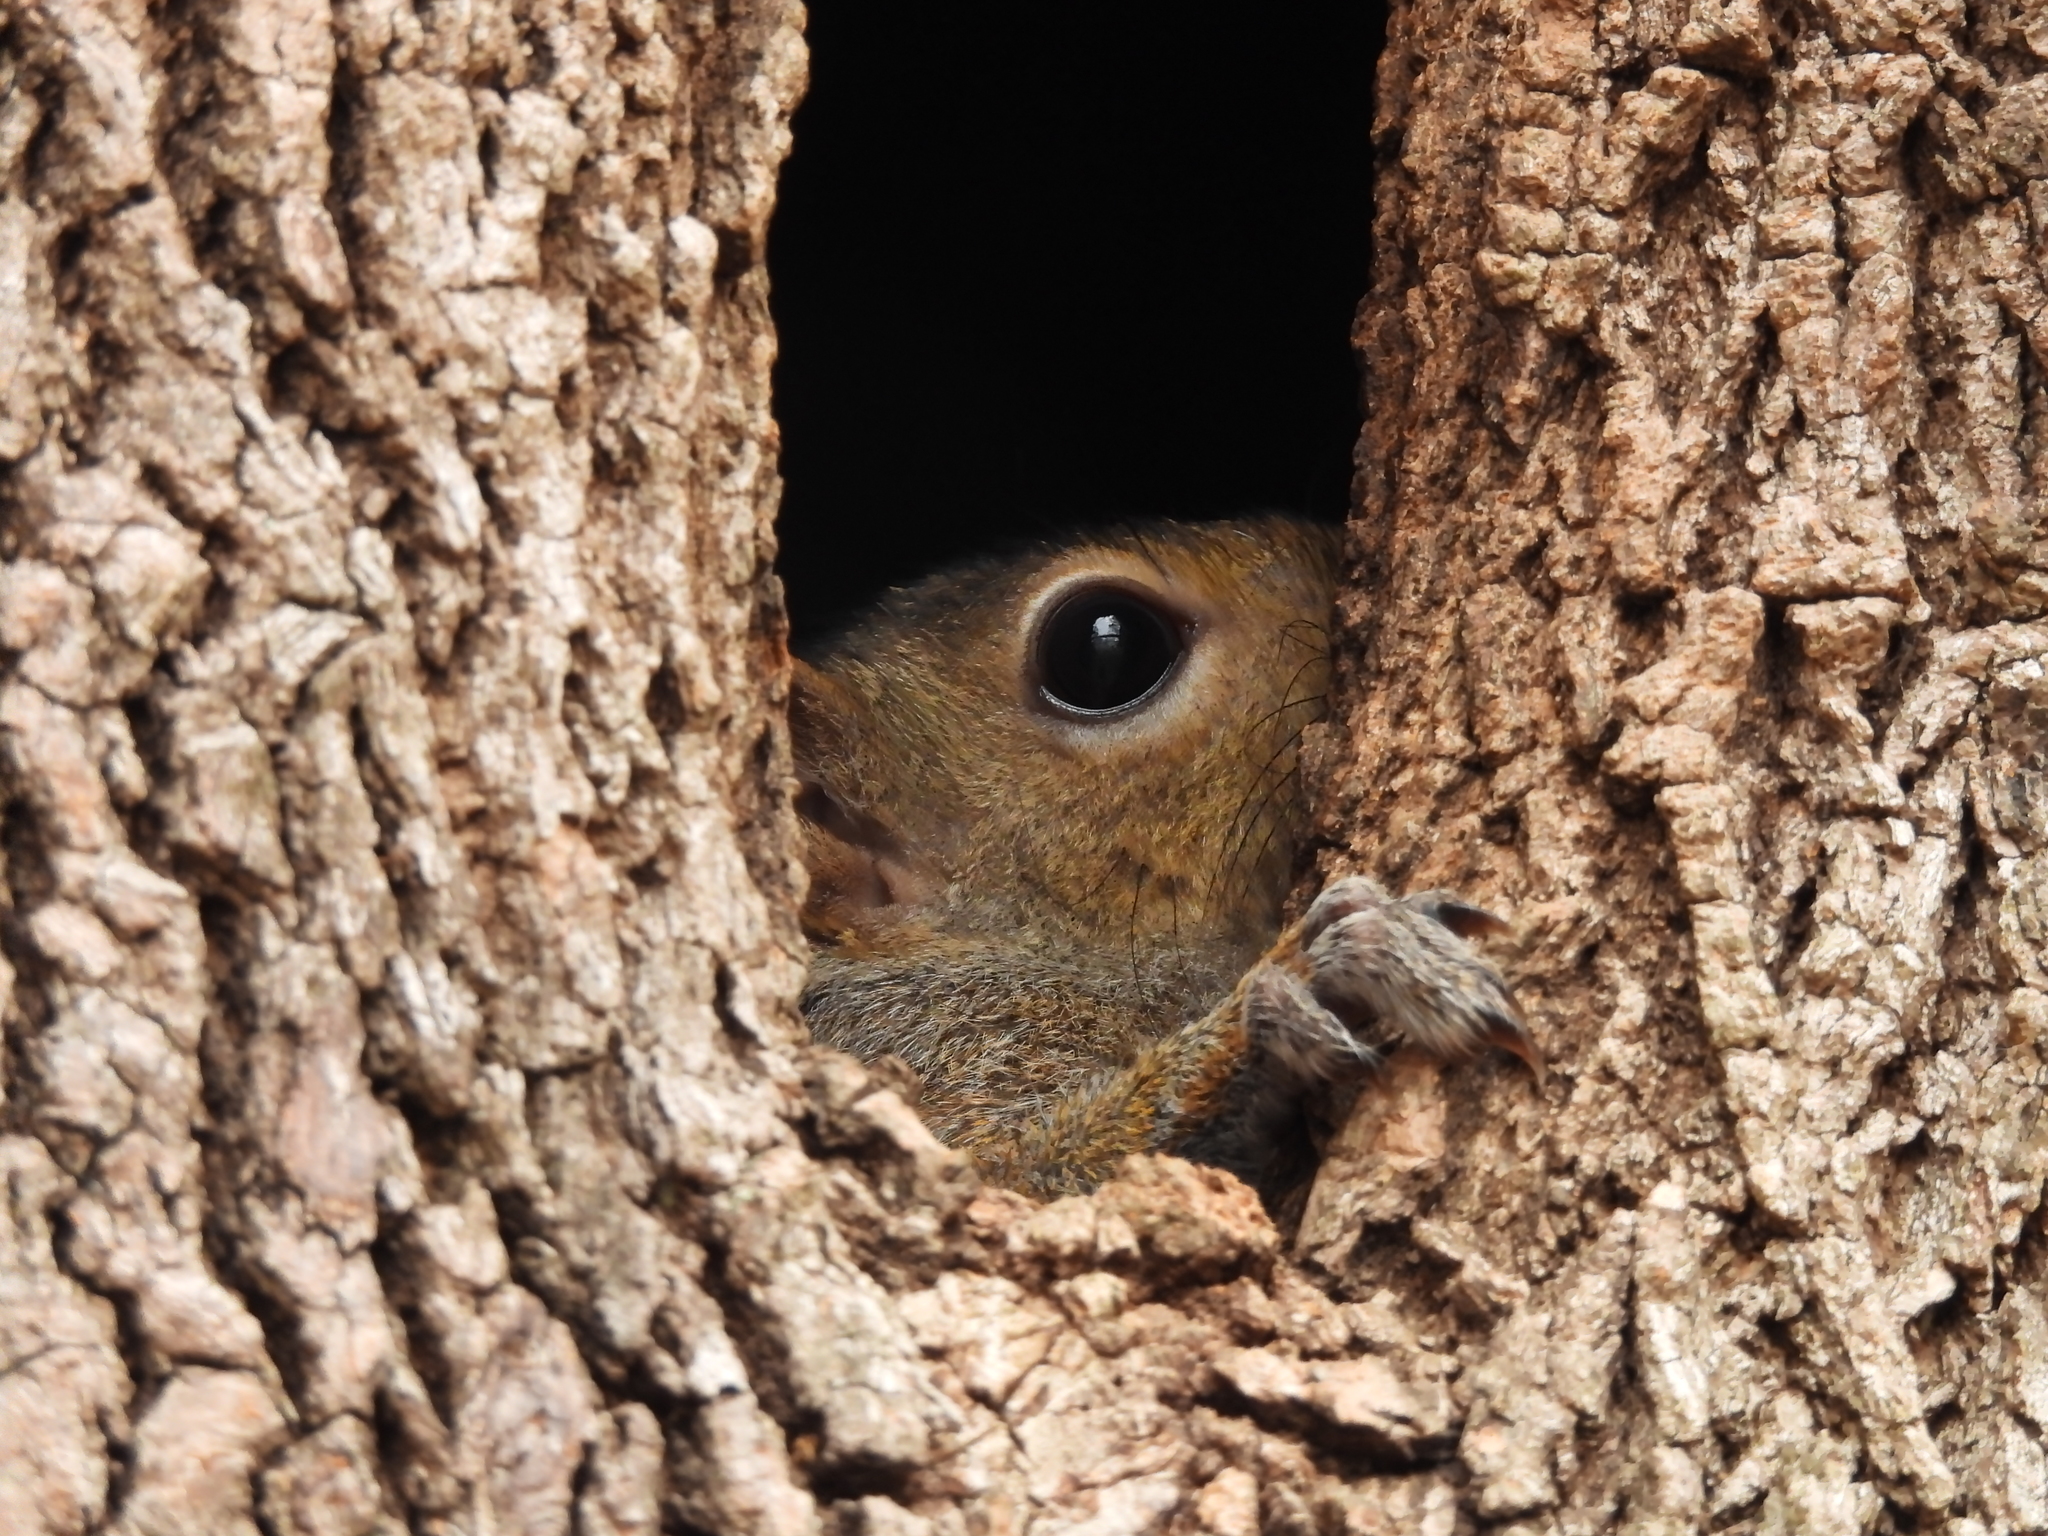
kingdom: Animalia
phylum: Chordata
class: Mammalia
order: Rodentia
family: Sciuridae
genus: Sciurus
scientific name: Sciurus carolinensis
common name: Eastern gray squirrel
